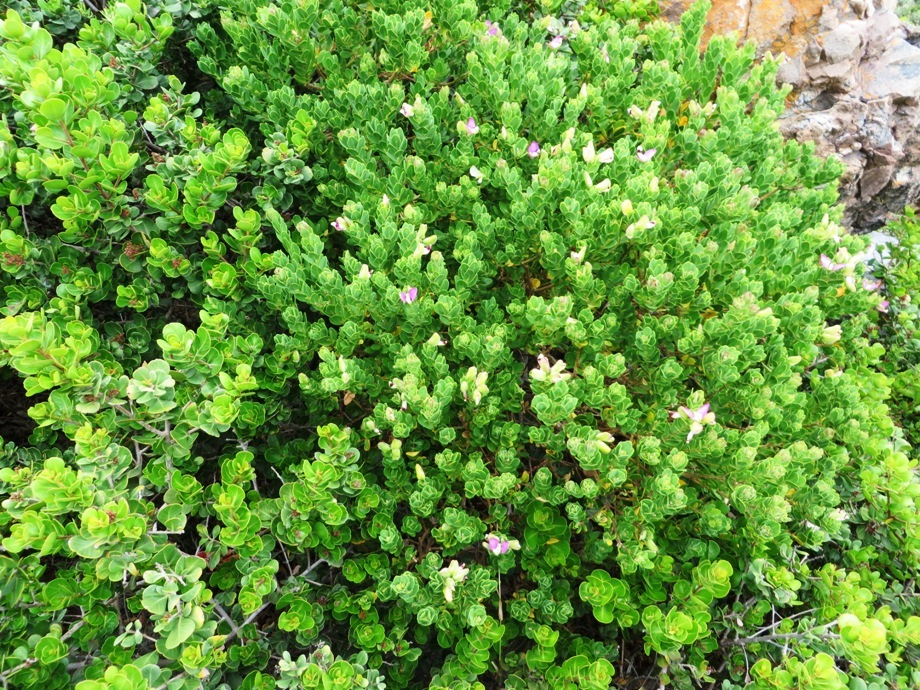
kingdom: Plantae
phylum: Tracheophyta
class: Magnoliopsida
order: Fabales
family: Polygalaceae
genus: Polygala
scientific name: Polygala myrtifolia
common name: Myrtle-leaf milkwort
